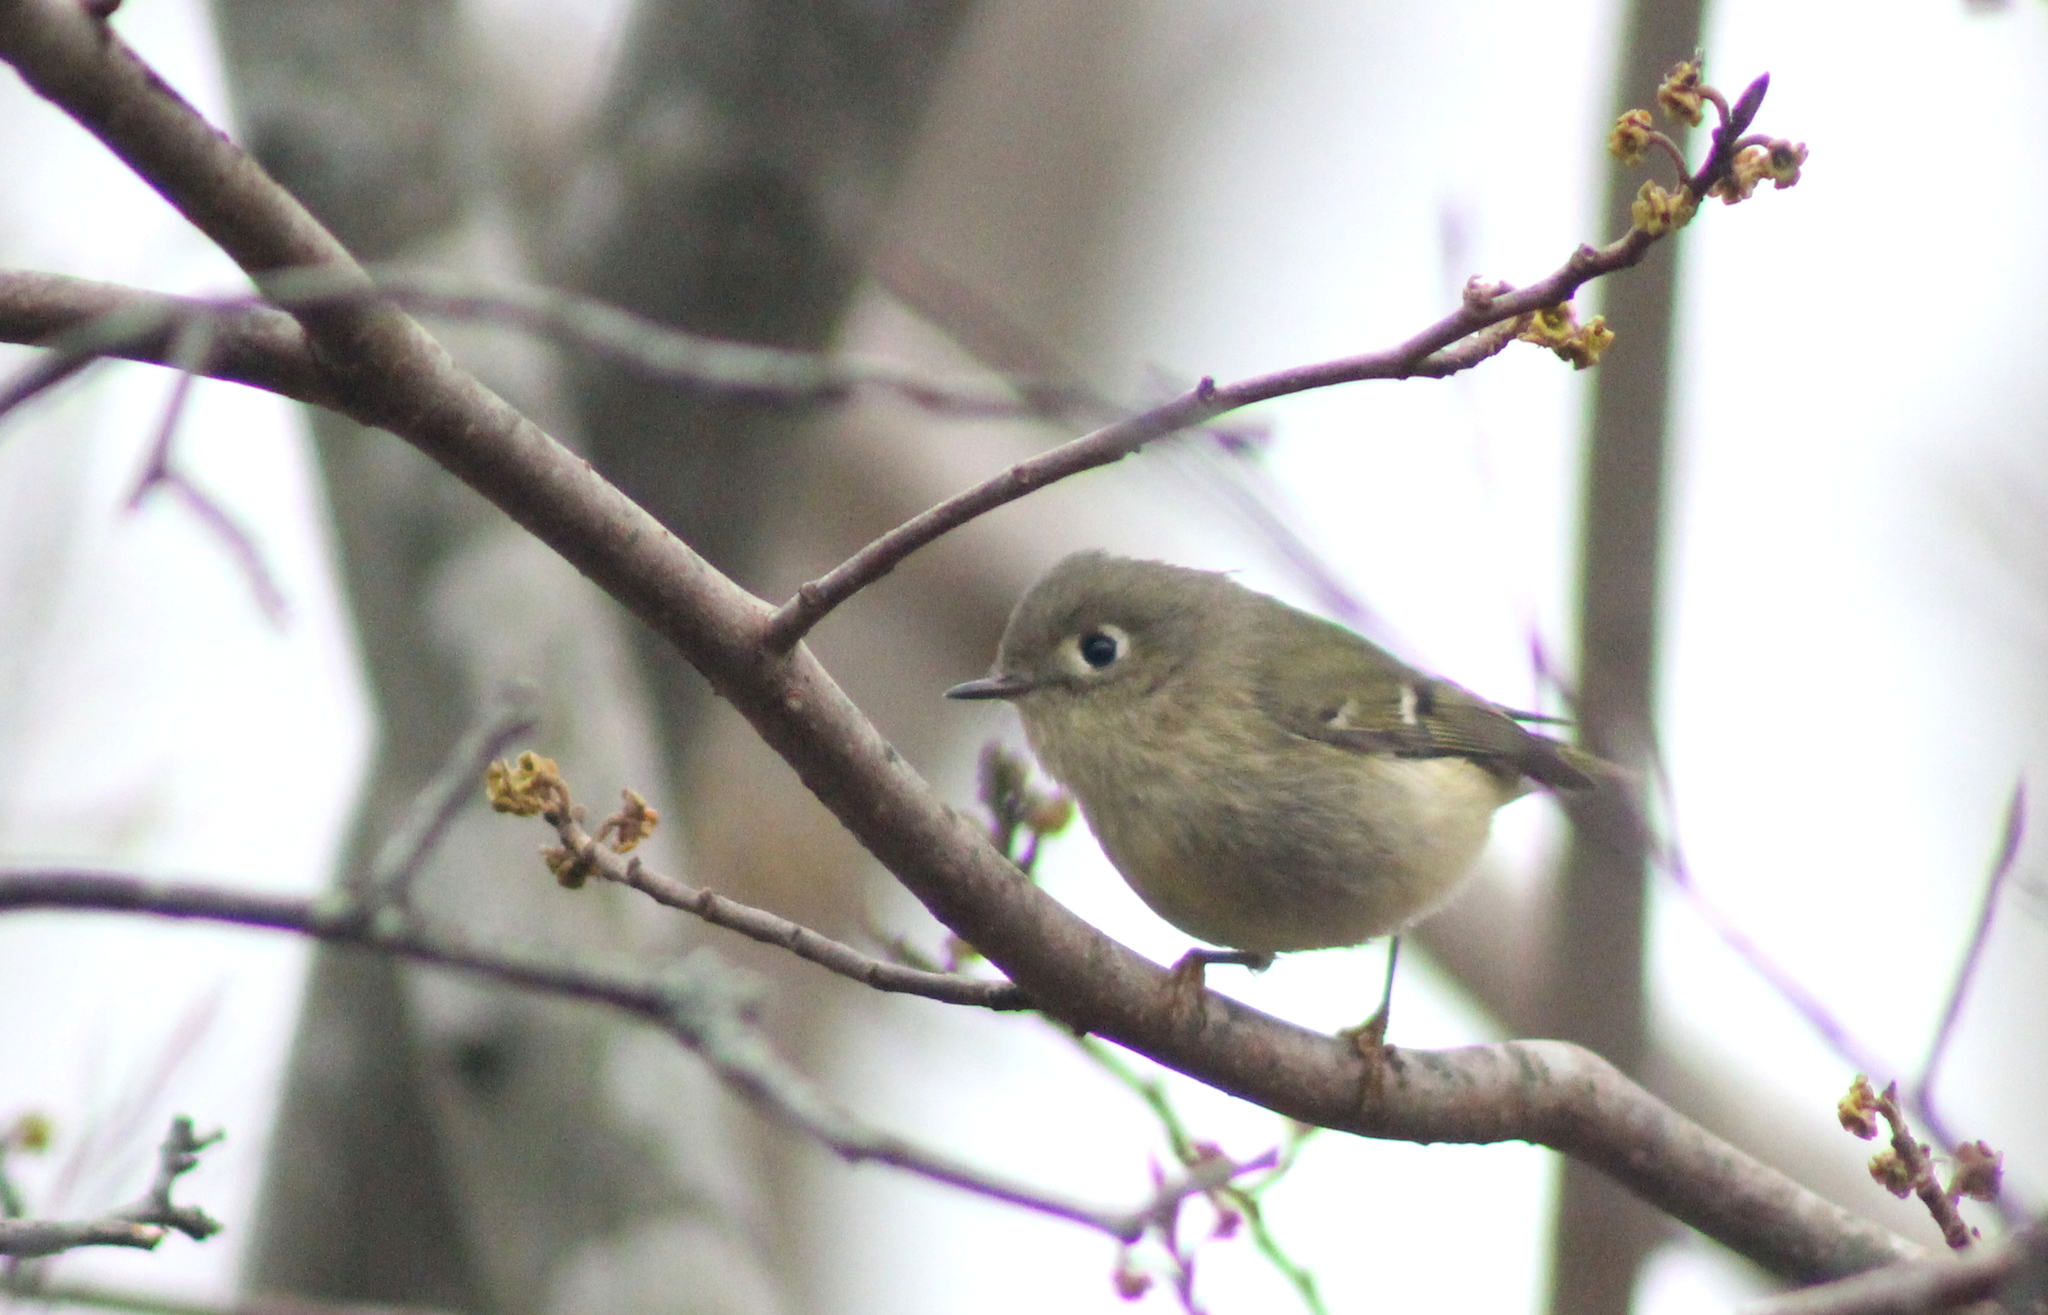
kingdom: Animalia
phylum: Chordata
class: Aves
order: Passeriformes
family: Regulidae
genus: Regulus
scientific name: Regulus calendula
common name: Ruby-crowned kinglet
